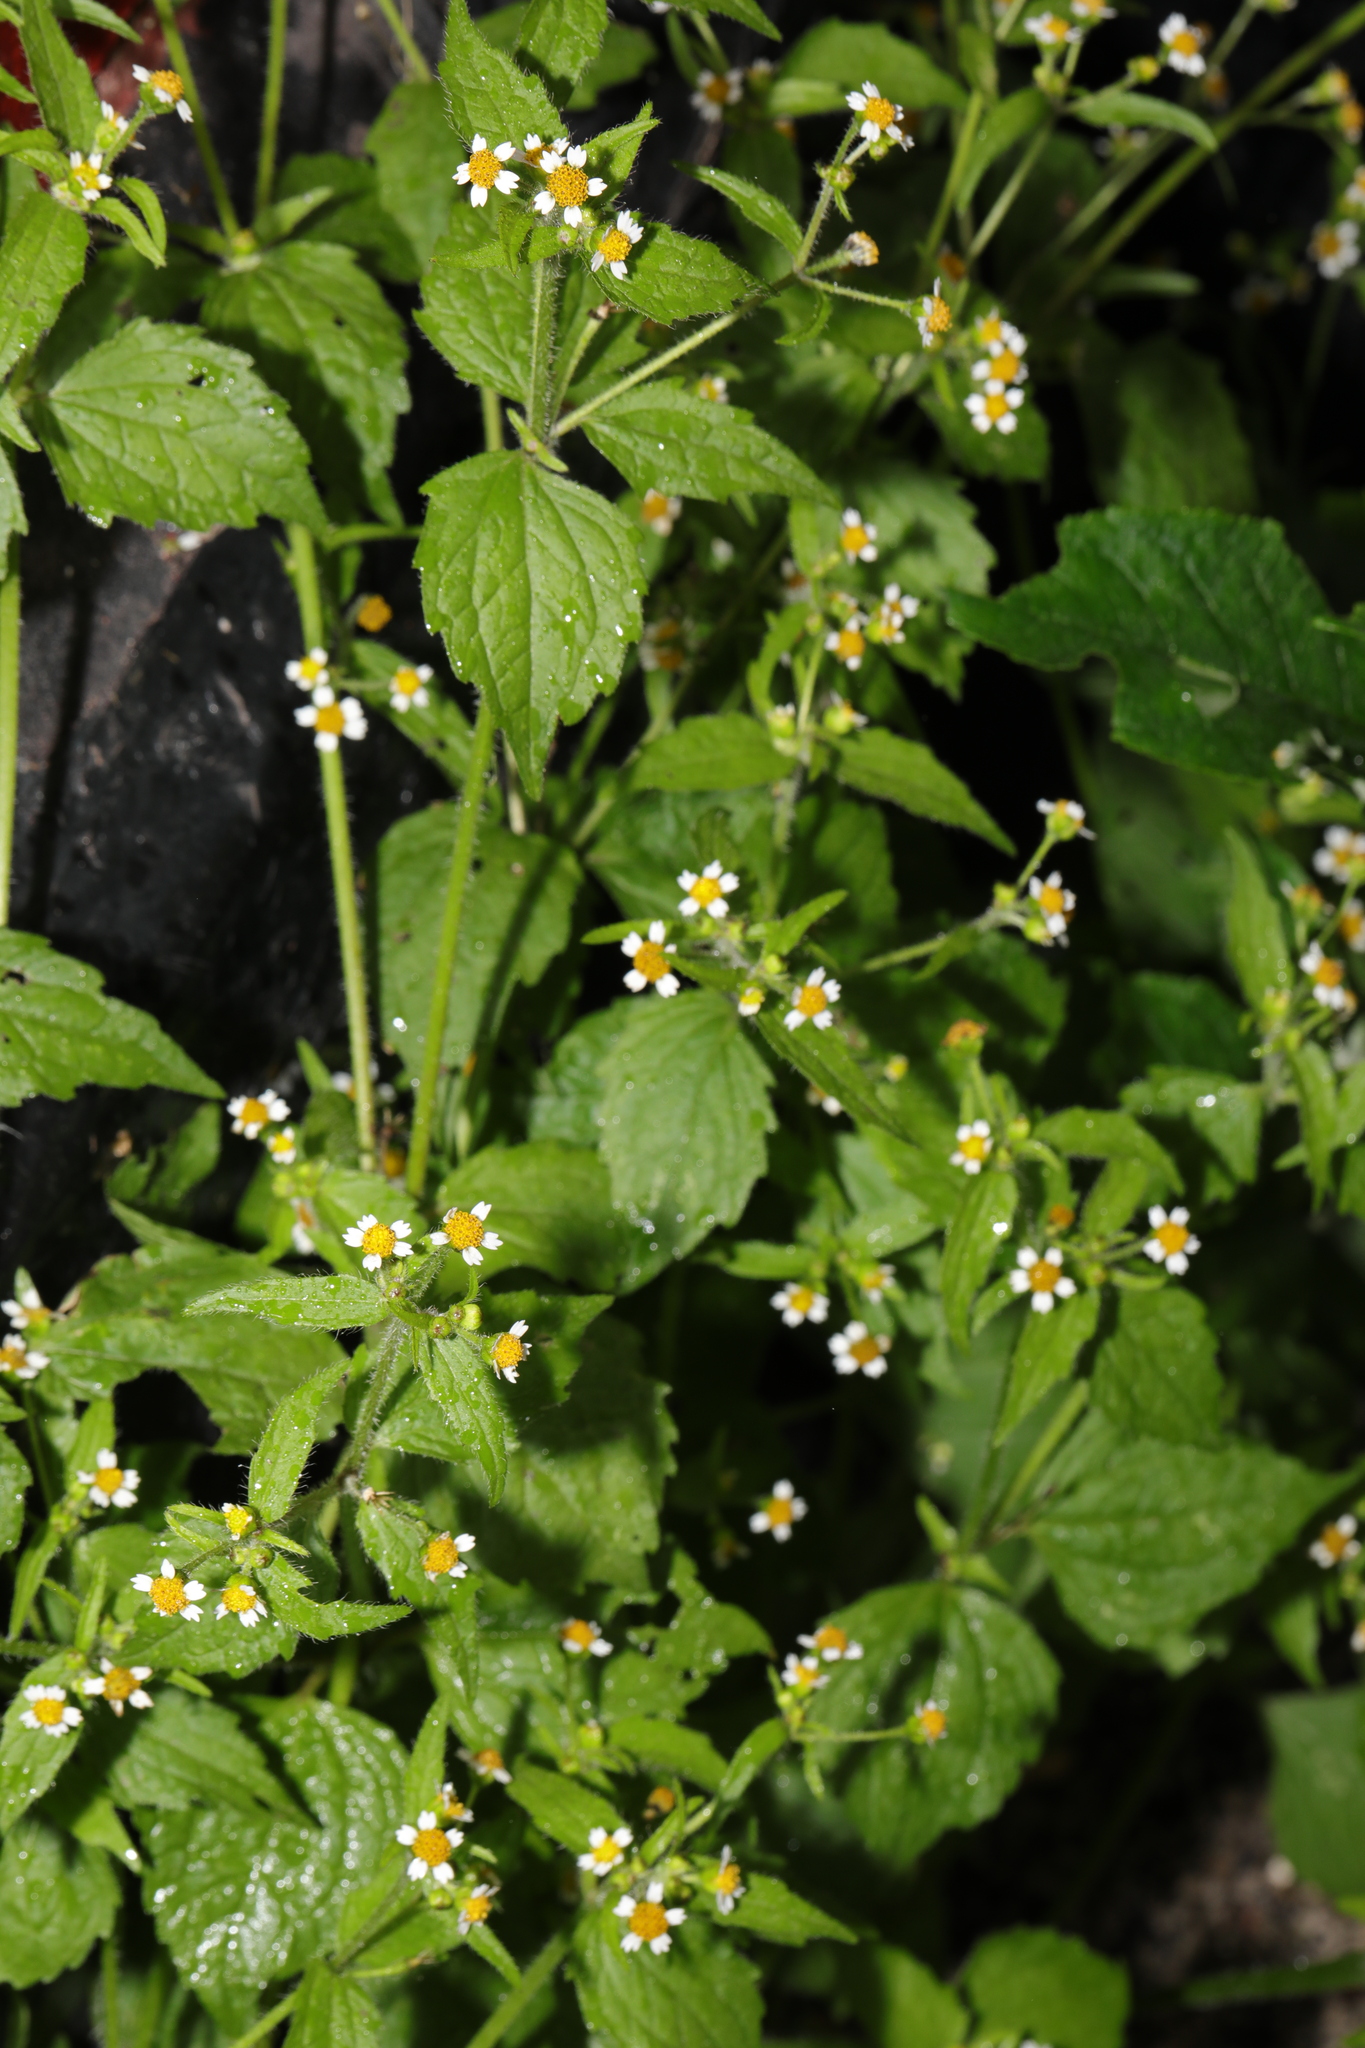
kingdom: Plantae
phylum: Tracheophyta
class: Magnoliopsida
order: Asterales
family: Asteraceae
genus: Galinsoga
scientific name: Galinsoga quadriradiata
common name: Shaggy soldier
